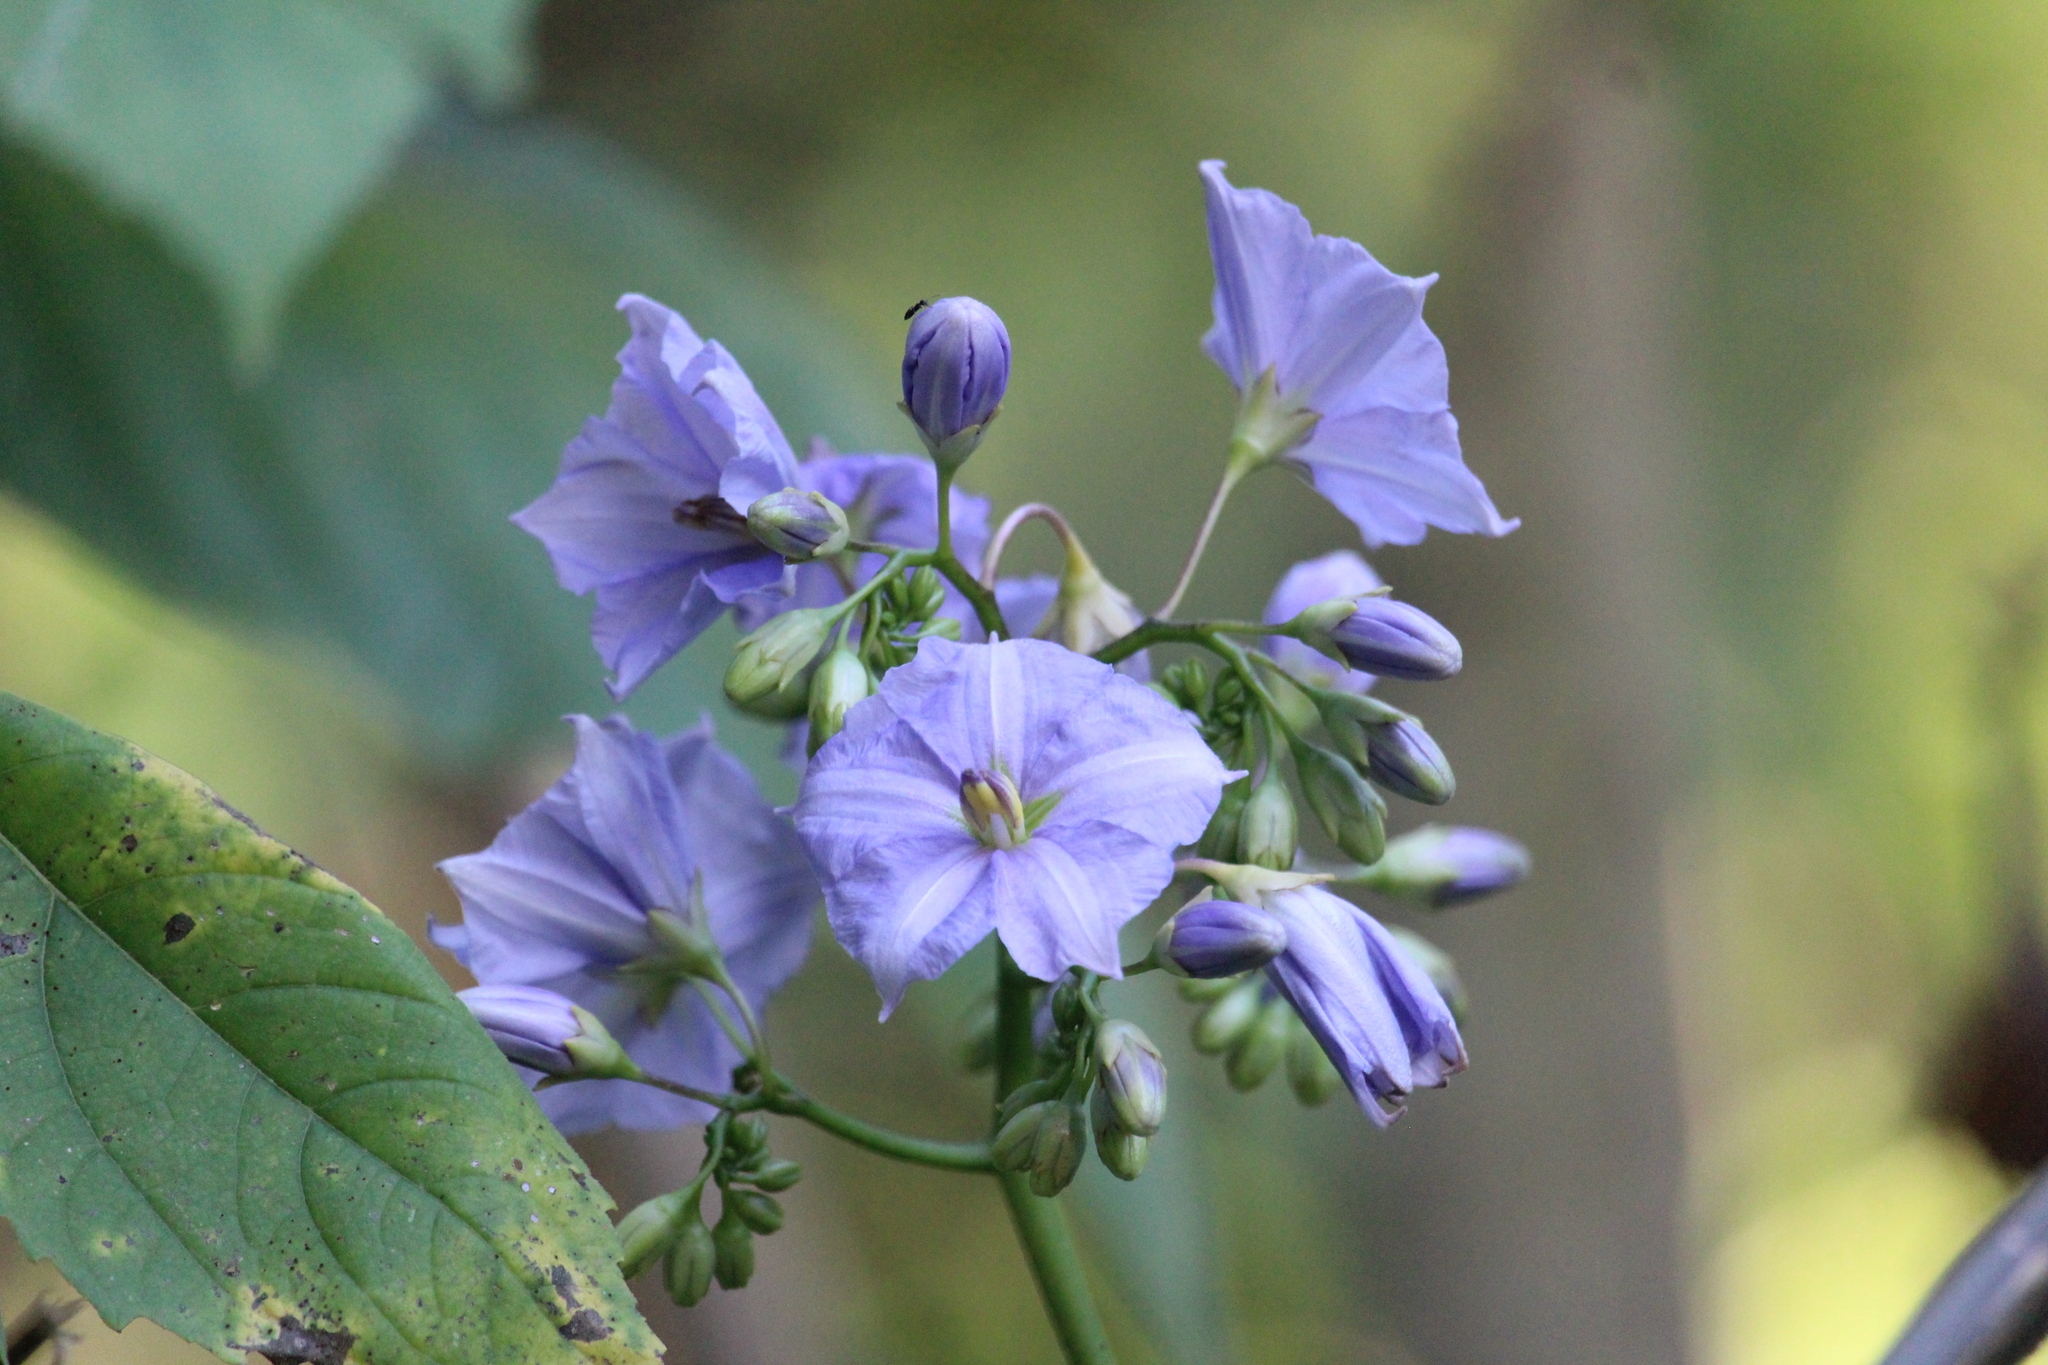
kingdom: Plantae
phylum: Tracheophyta
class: Magnoliopsida
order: Solanales
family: Solanaceae
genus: Solanum
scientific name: Solanum wendlandii
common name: Costa rican nightshade
